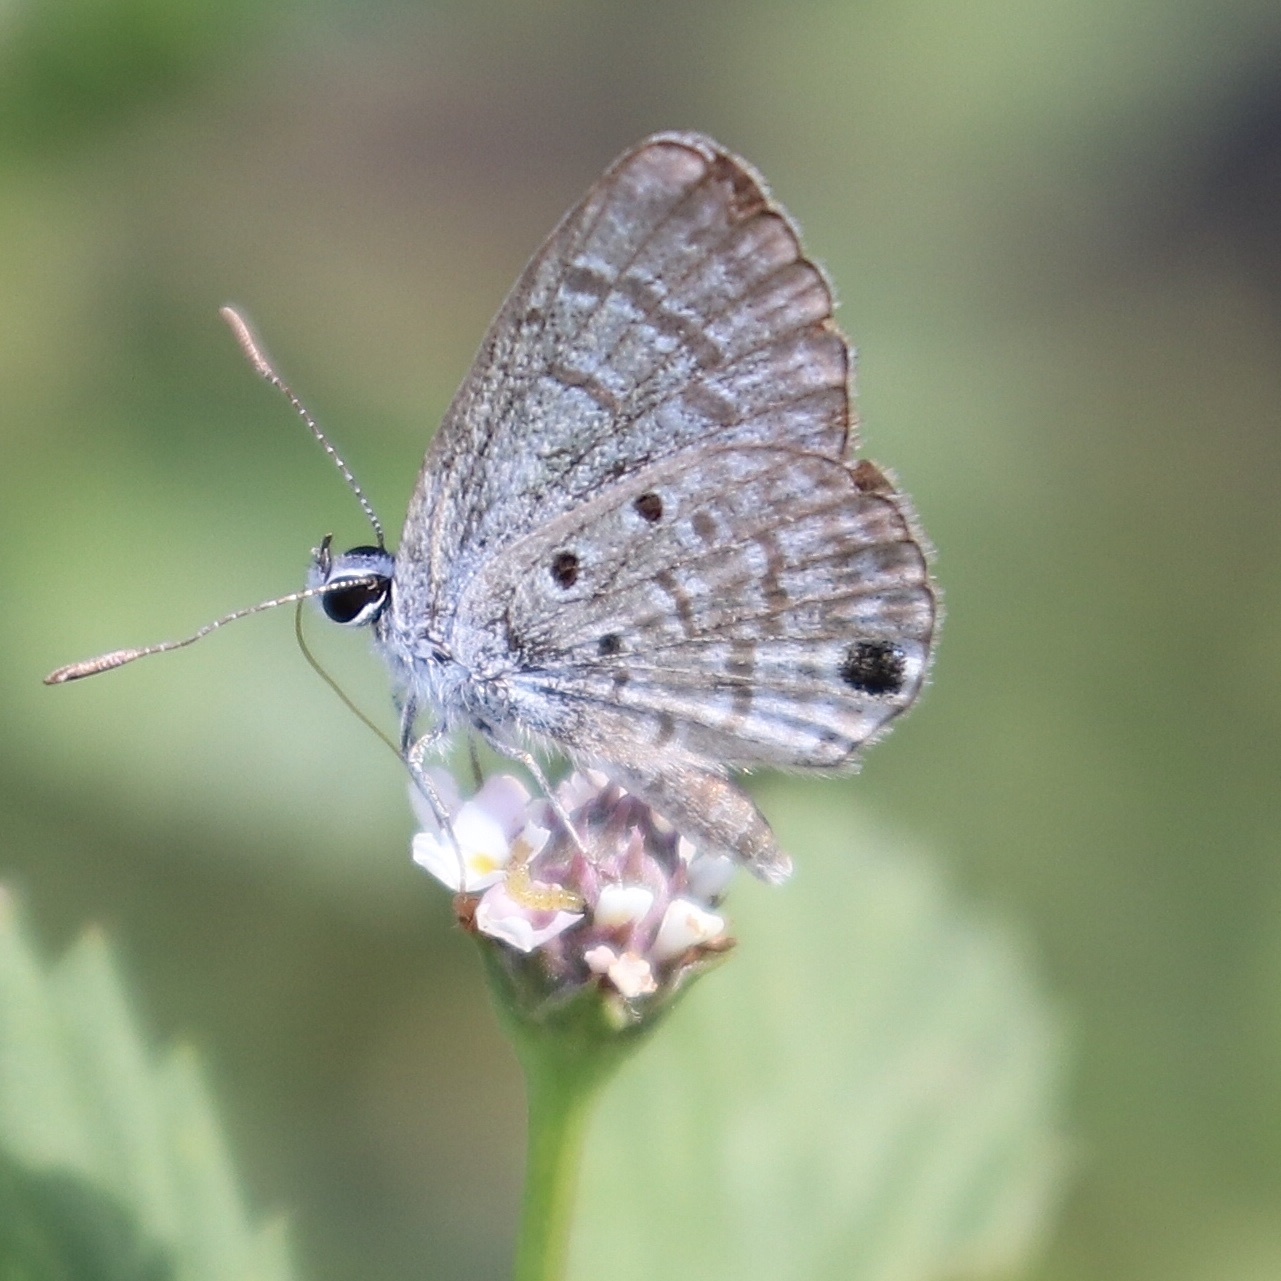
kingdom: Animalia
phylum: Arthropoda
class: Insecta
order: Lepidoptera
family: Lycaenidae
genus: Hemiargus
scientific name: Hemiargus ceraunus
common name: Ceraunus blue
